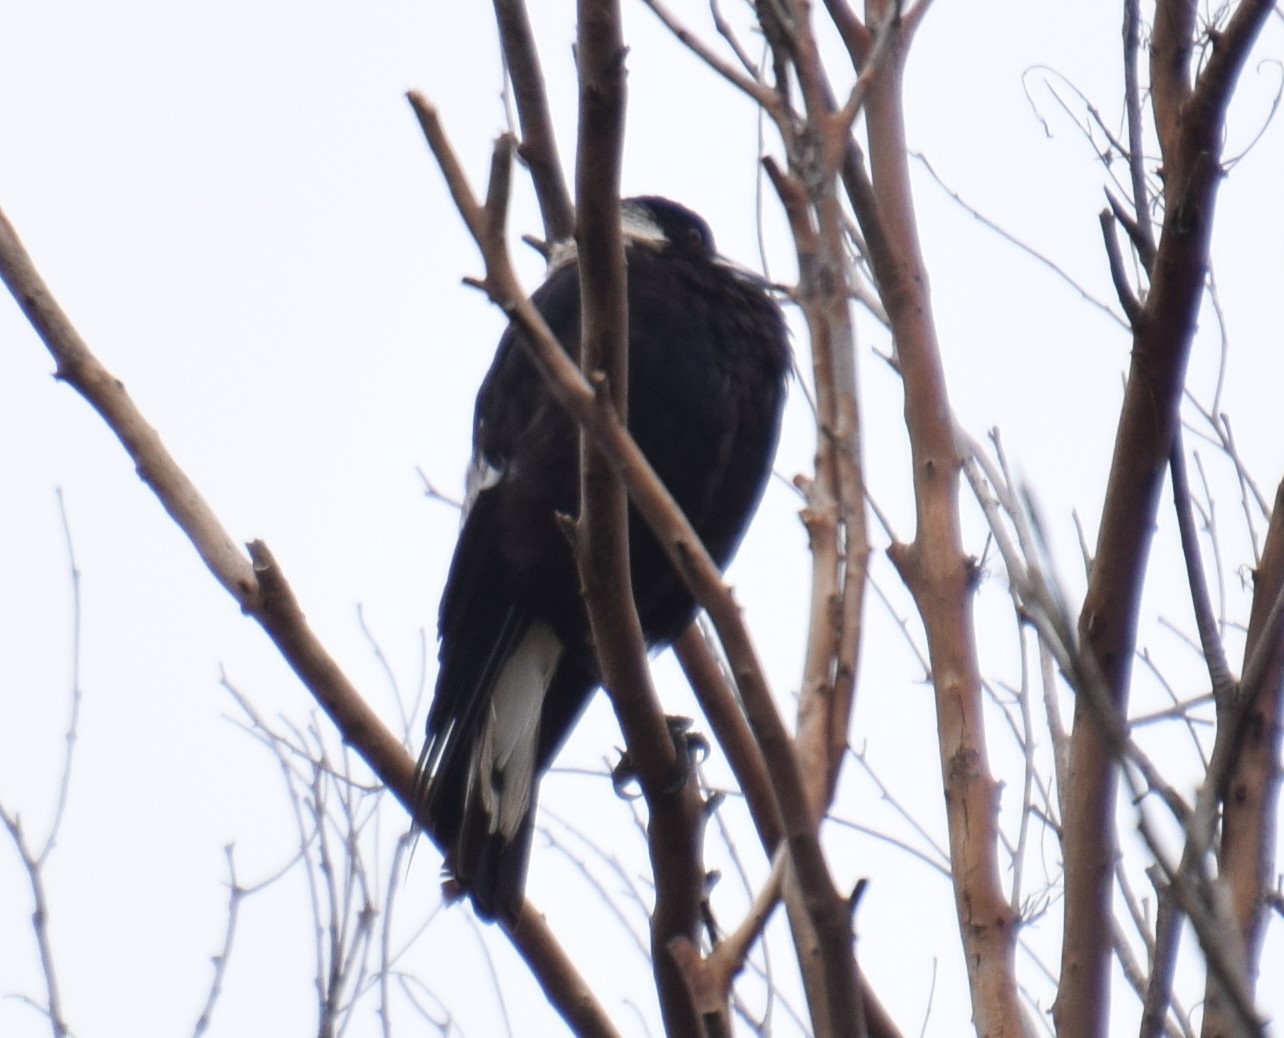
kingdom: Animalia
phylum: Chordata
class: Aves
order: Passeriformes
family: Cracticidae
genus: Gymnorhina
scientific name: Gymnorhina tibicen
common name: Australian magpie
